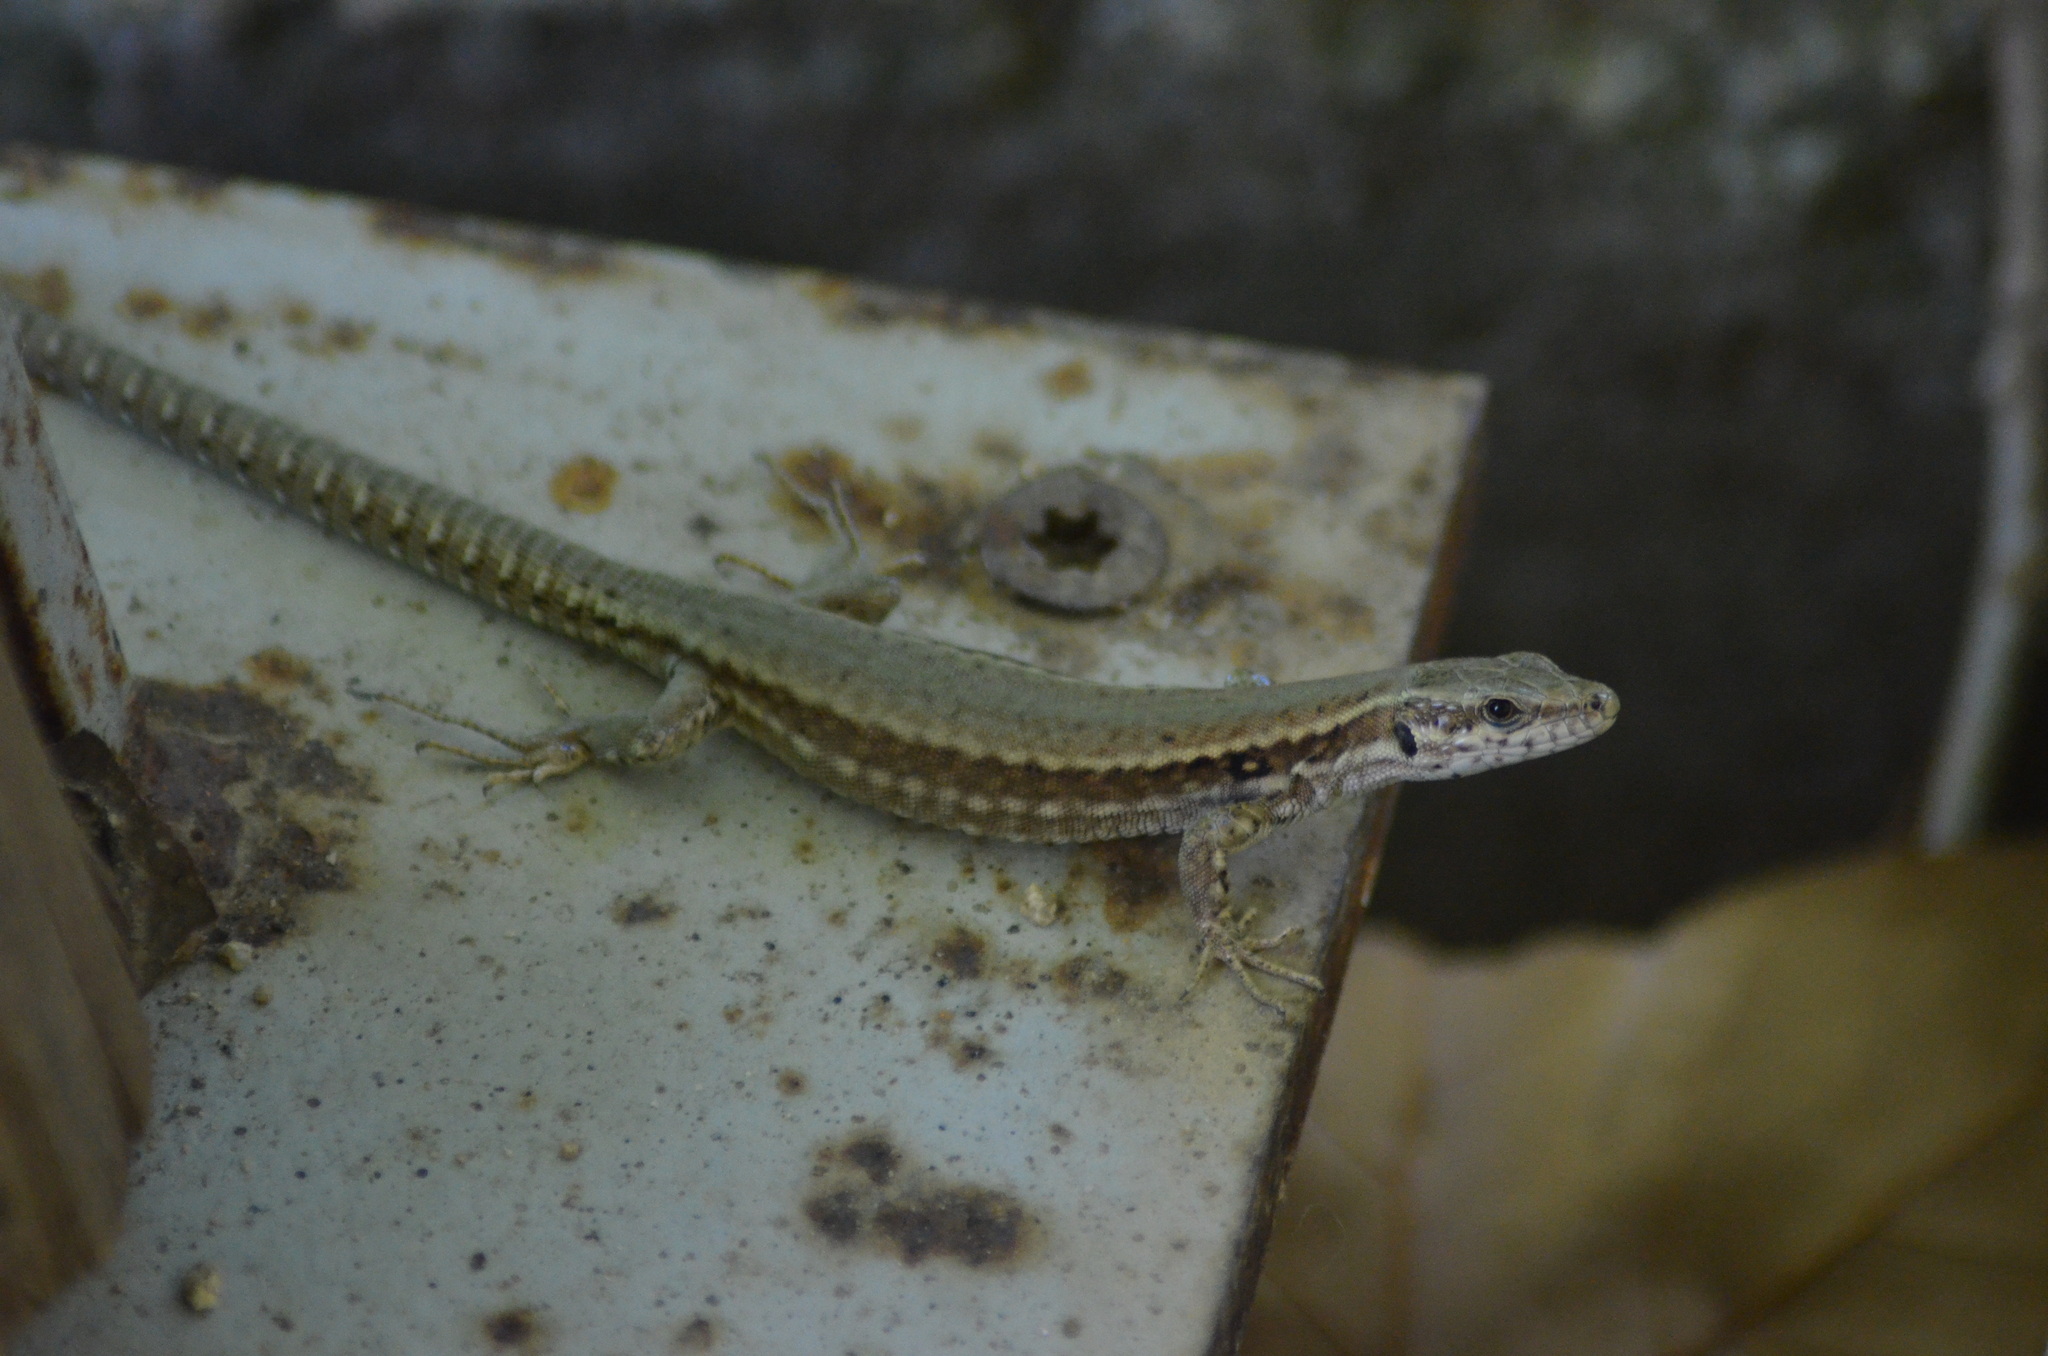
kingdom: Animalia
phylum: Chordata
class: Squamata
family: Lacertidae
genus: Podarcis
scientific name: Podarcis liolepis
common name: Catalonian wall lizard
